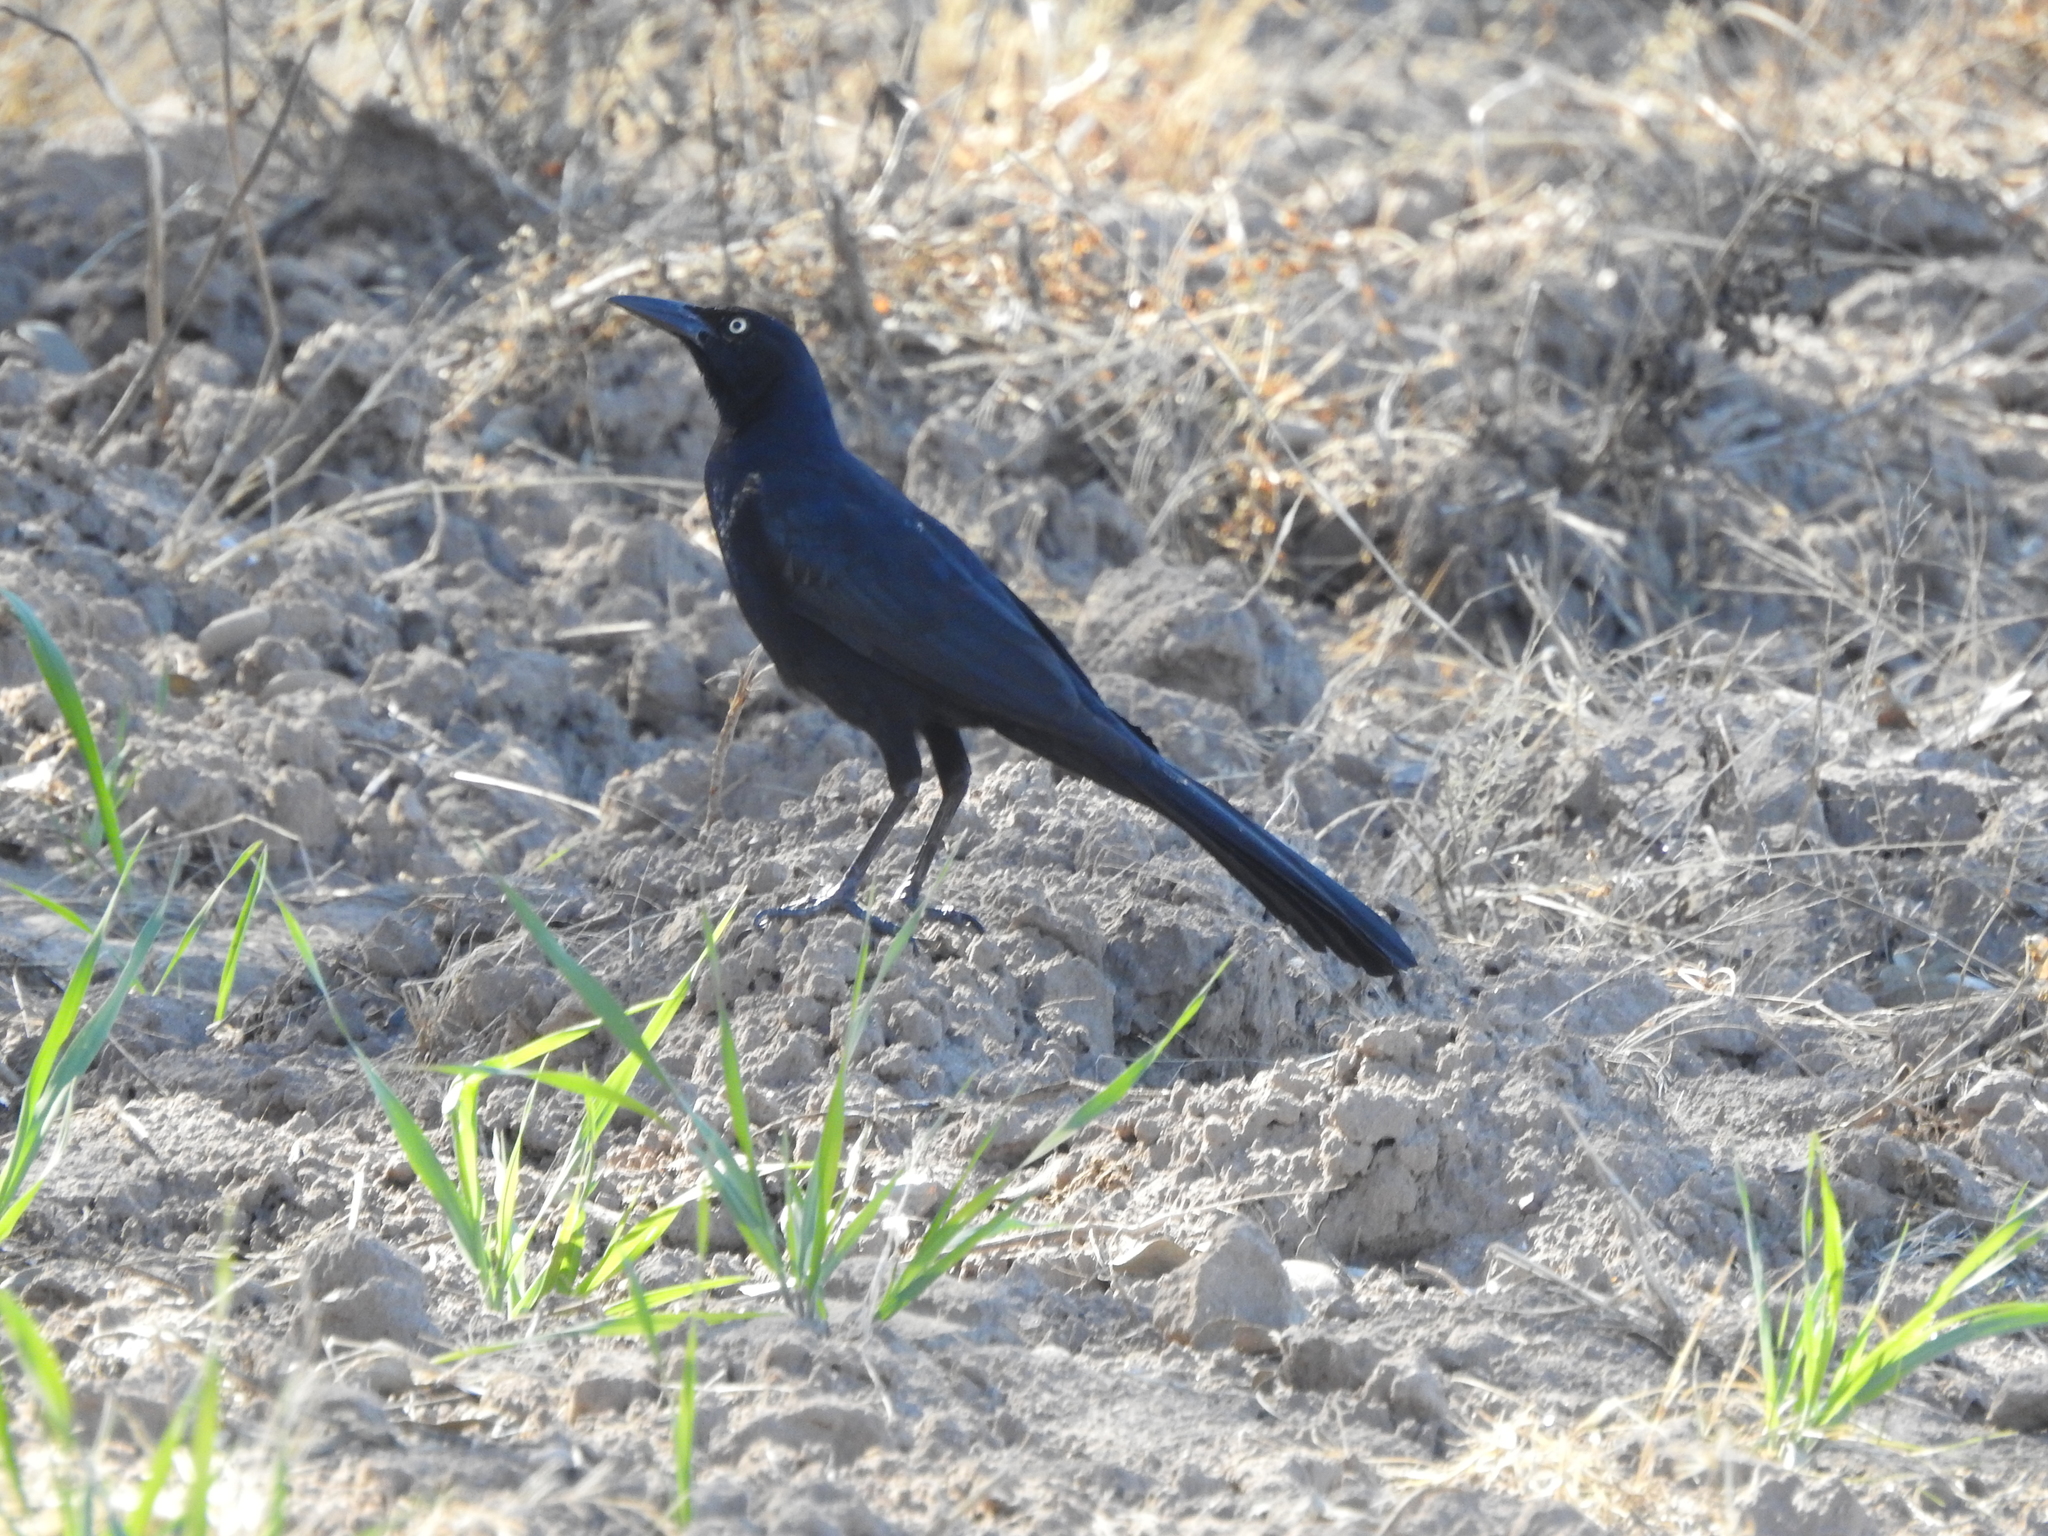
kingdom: Animalia
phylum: Chordata
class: Aves
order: Passeriformes
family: Icteridae
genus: Quiscalus
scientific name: Quiscalus mexicanus
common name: Great-tailed grackle
